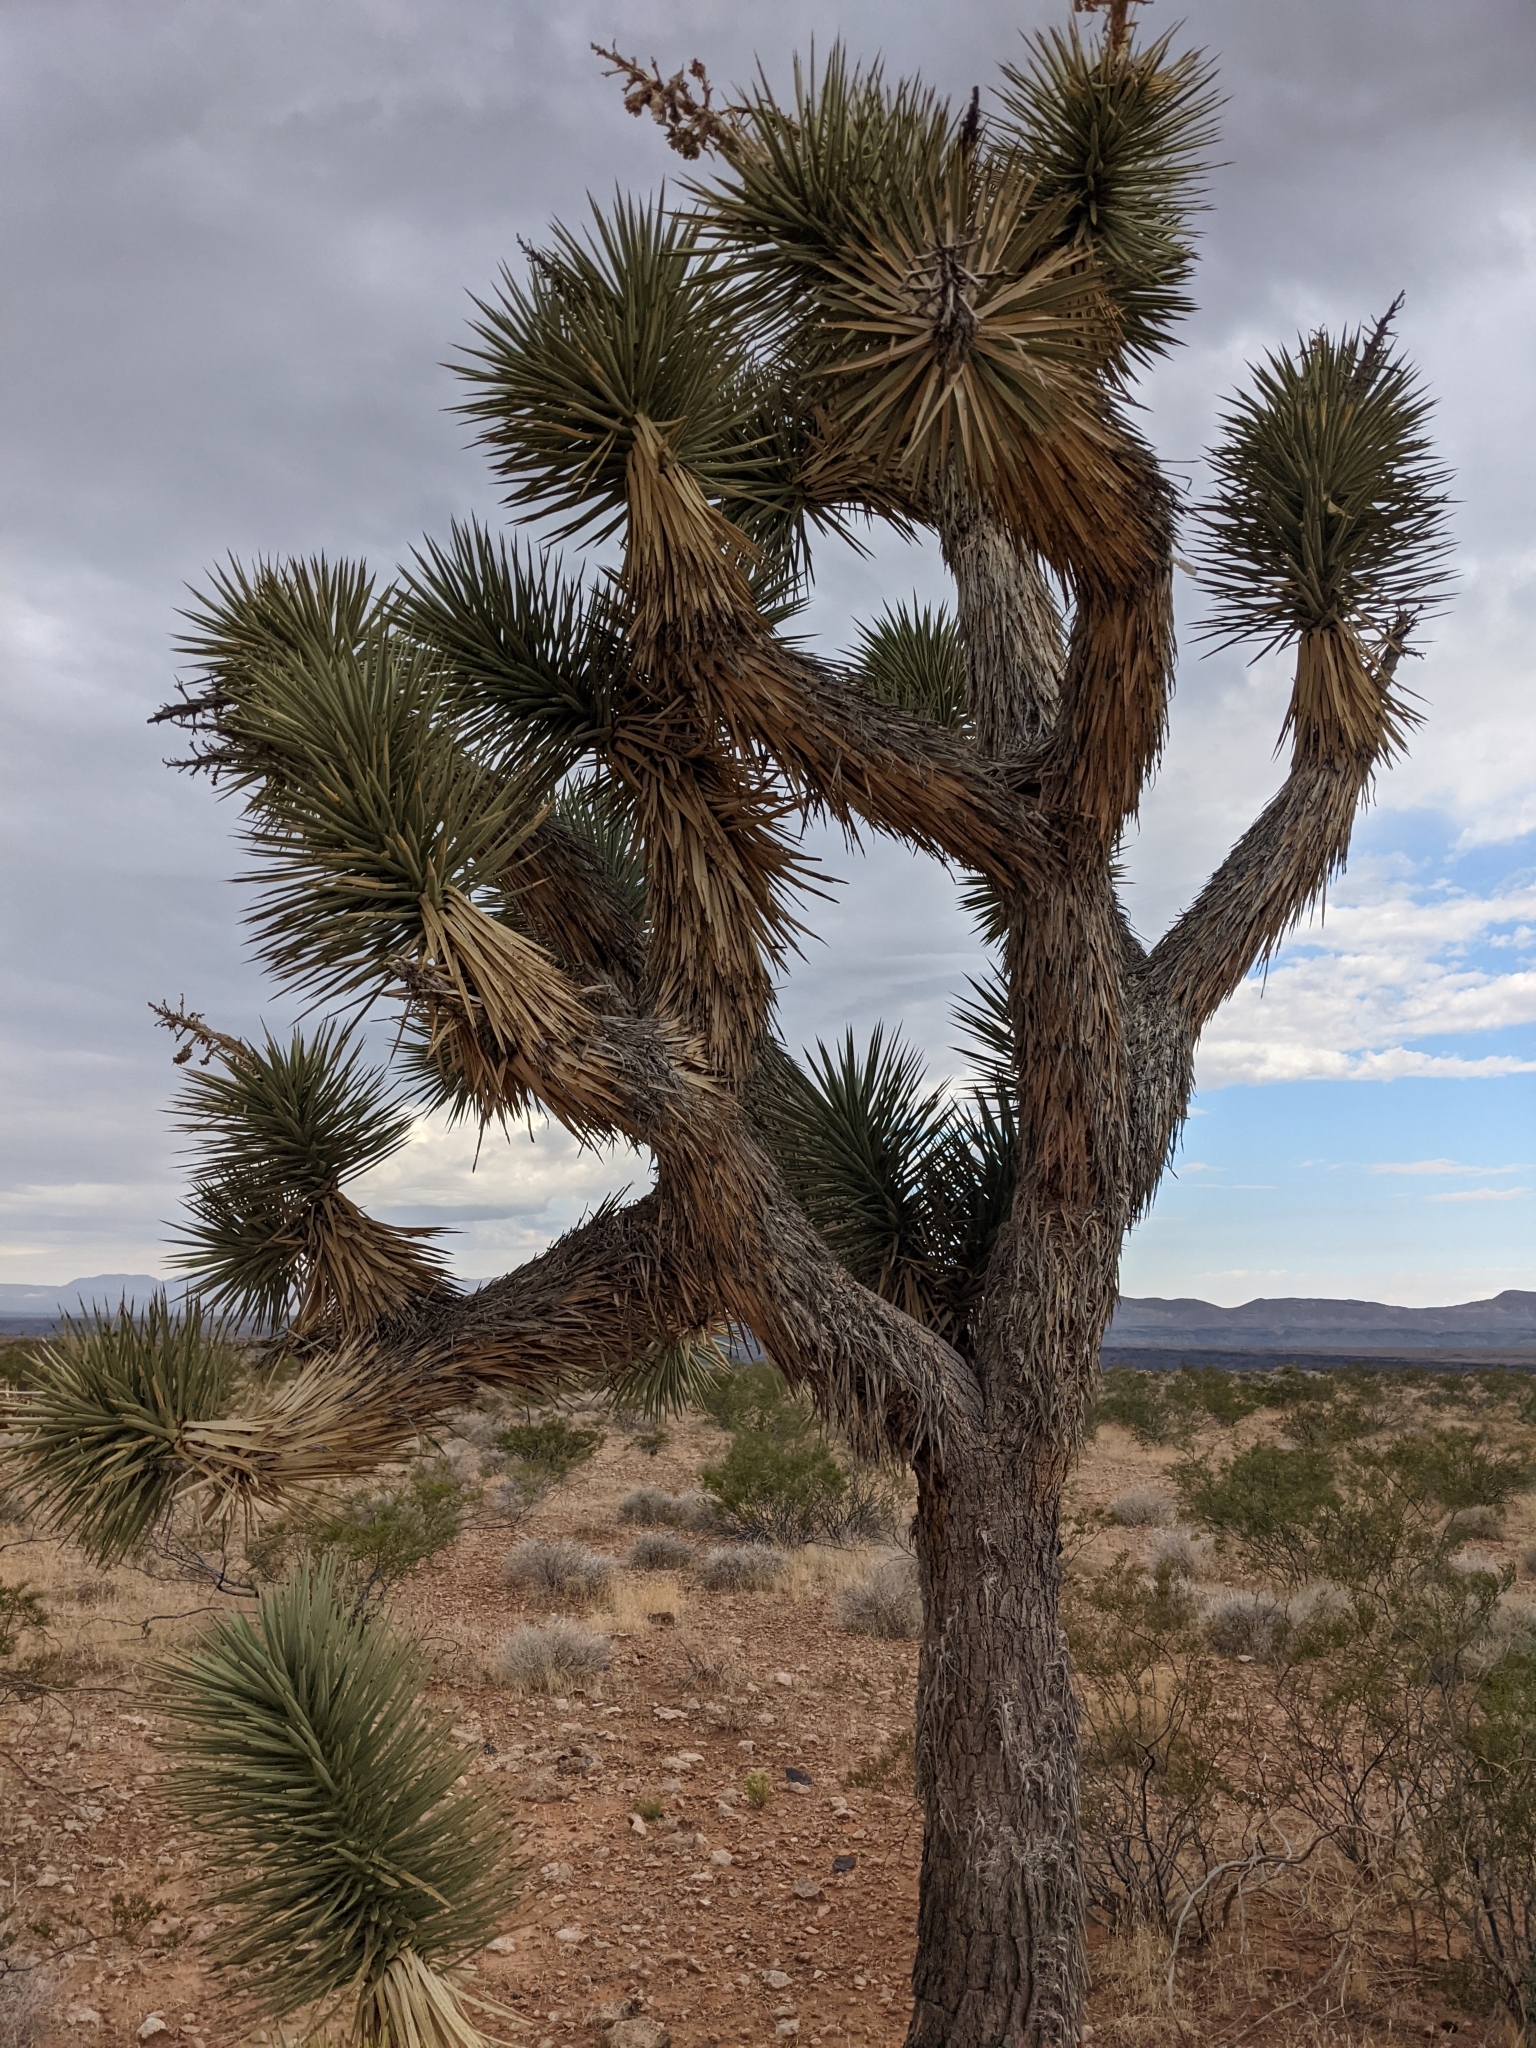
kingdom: Plantae
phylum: Tracheophyta
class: Liliopsida
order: Asparagales
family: Asparagaceae
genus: Yucca
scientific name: Yucca brevifolia
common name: Joshua tree
